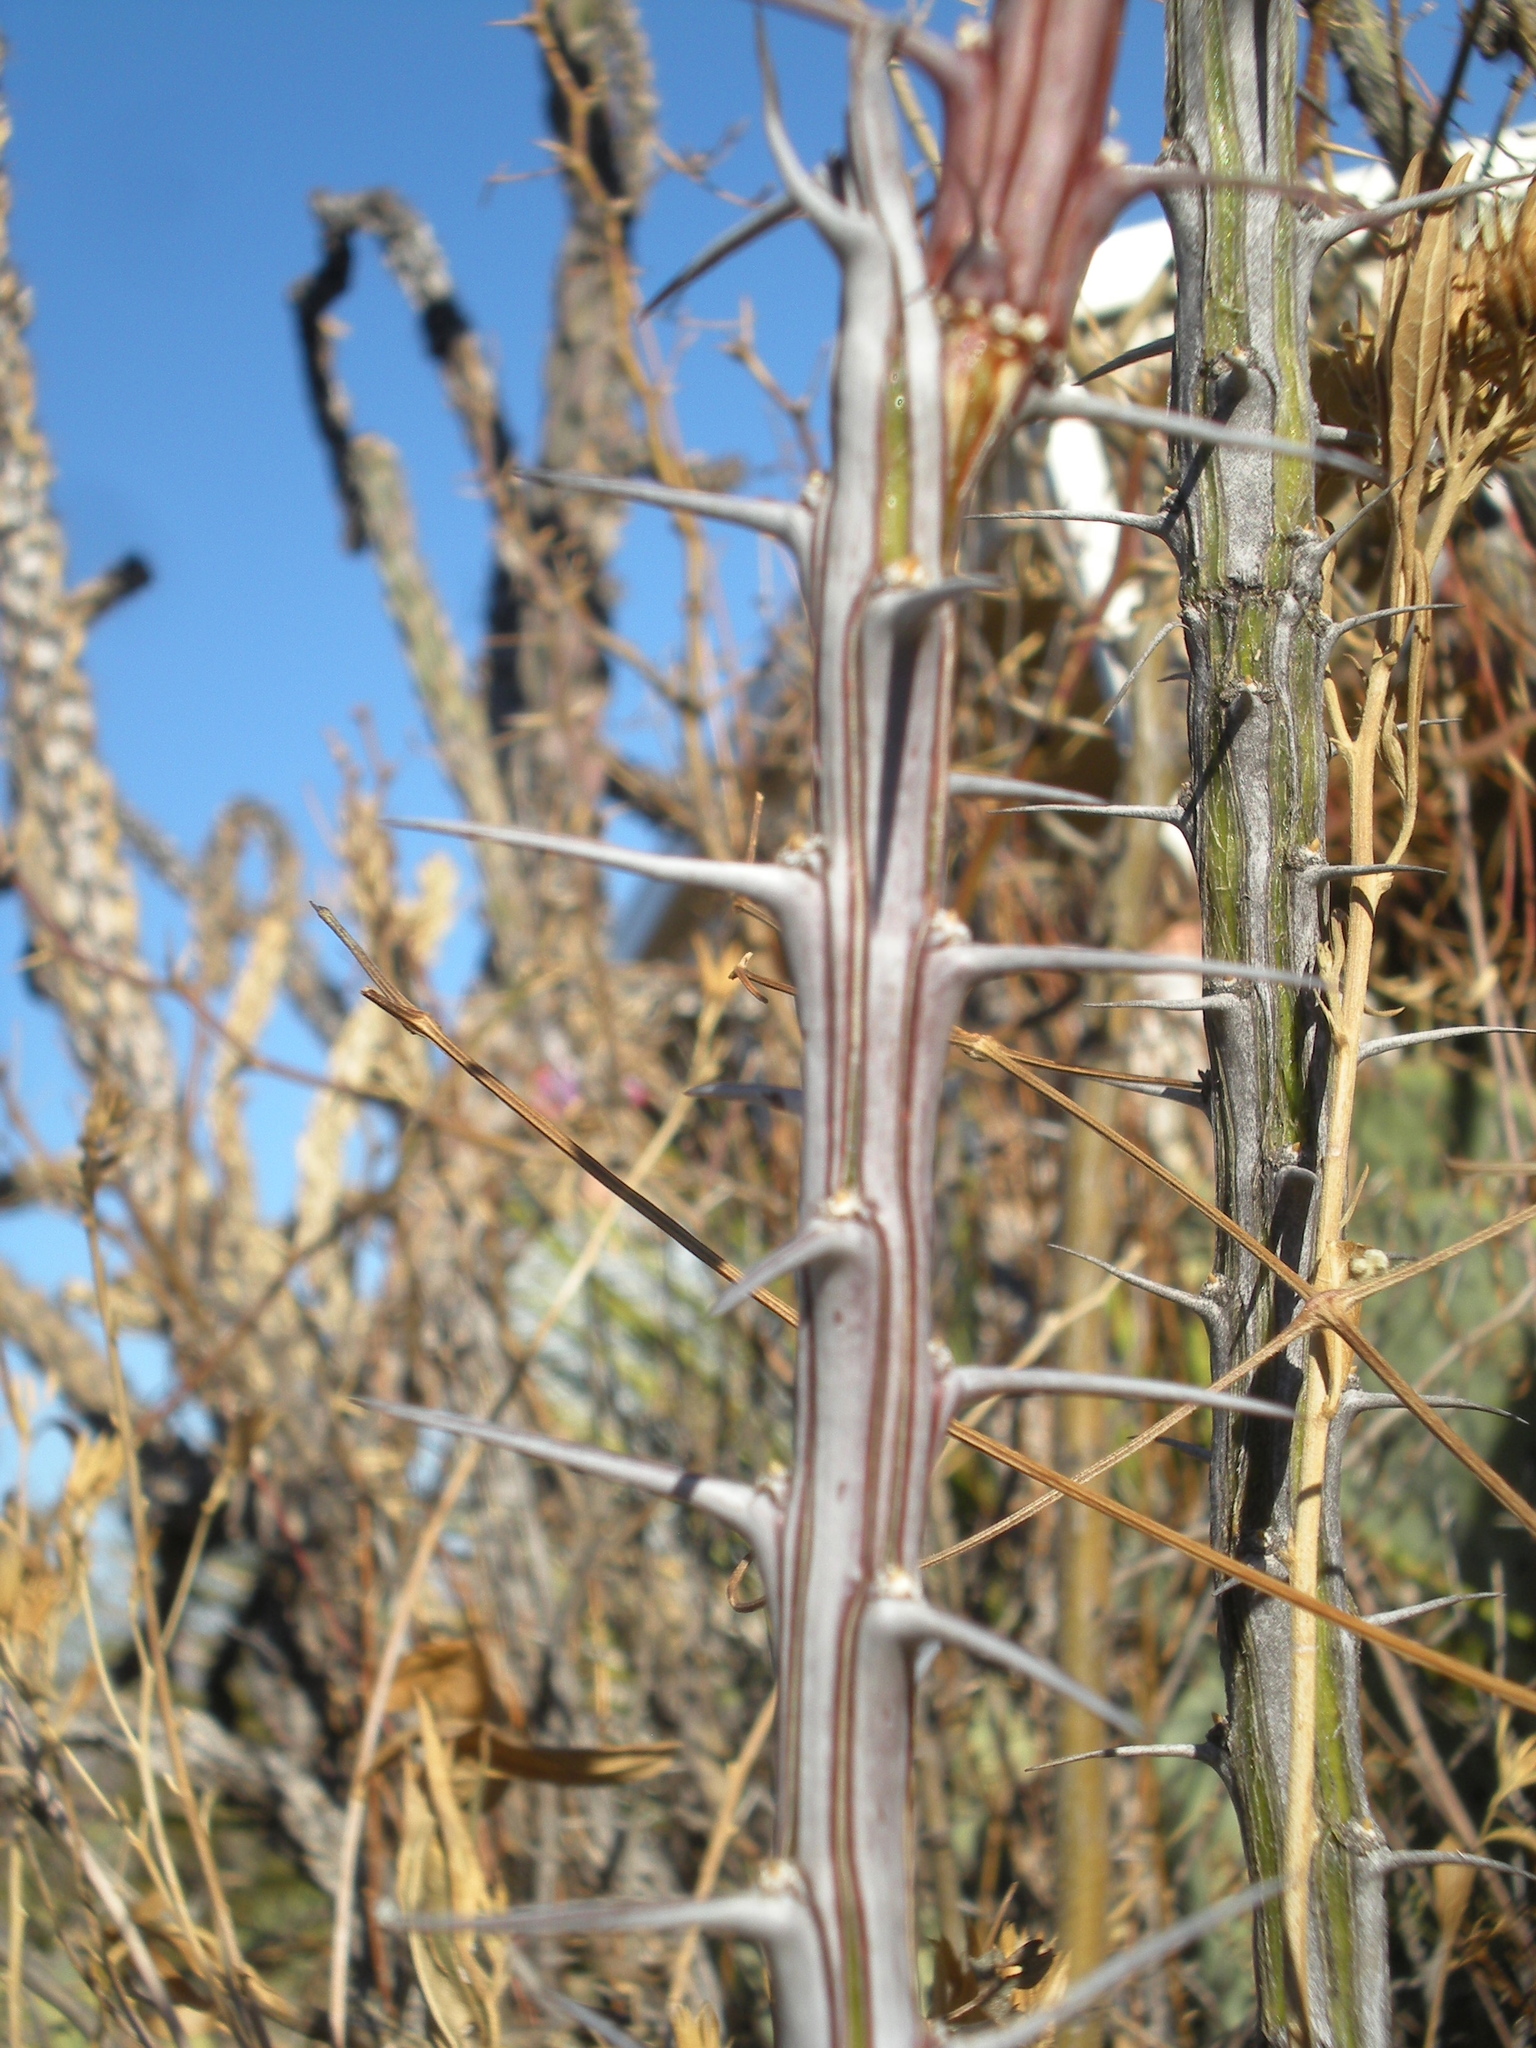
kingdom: Plantae
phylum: Tracheophyta
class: Magnoliopsida
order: Ericales
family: Fouquieriaceae
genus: Fouquieria
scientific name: Fouquieria splendens
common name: Vine-cactus
